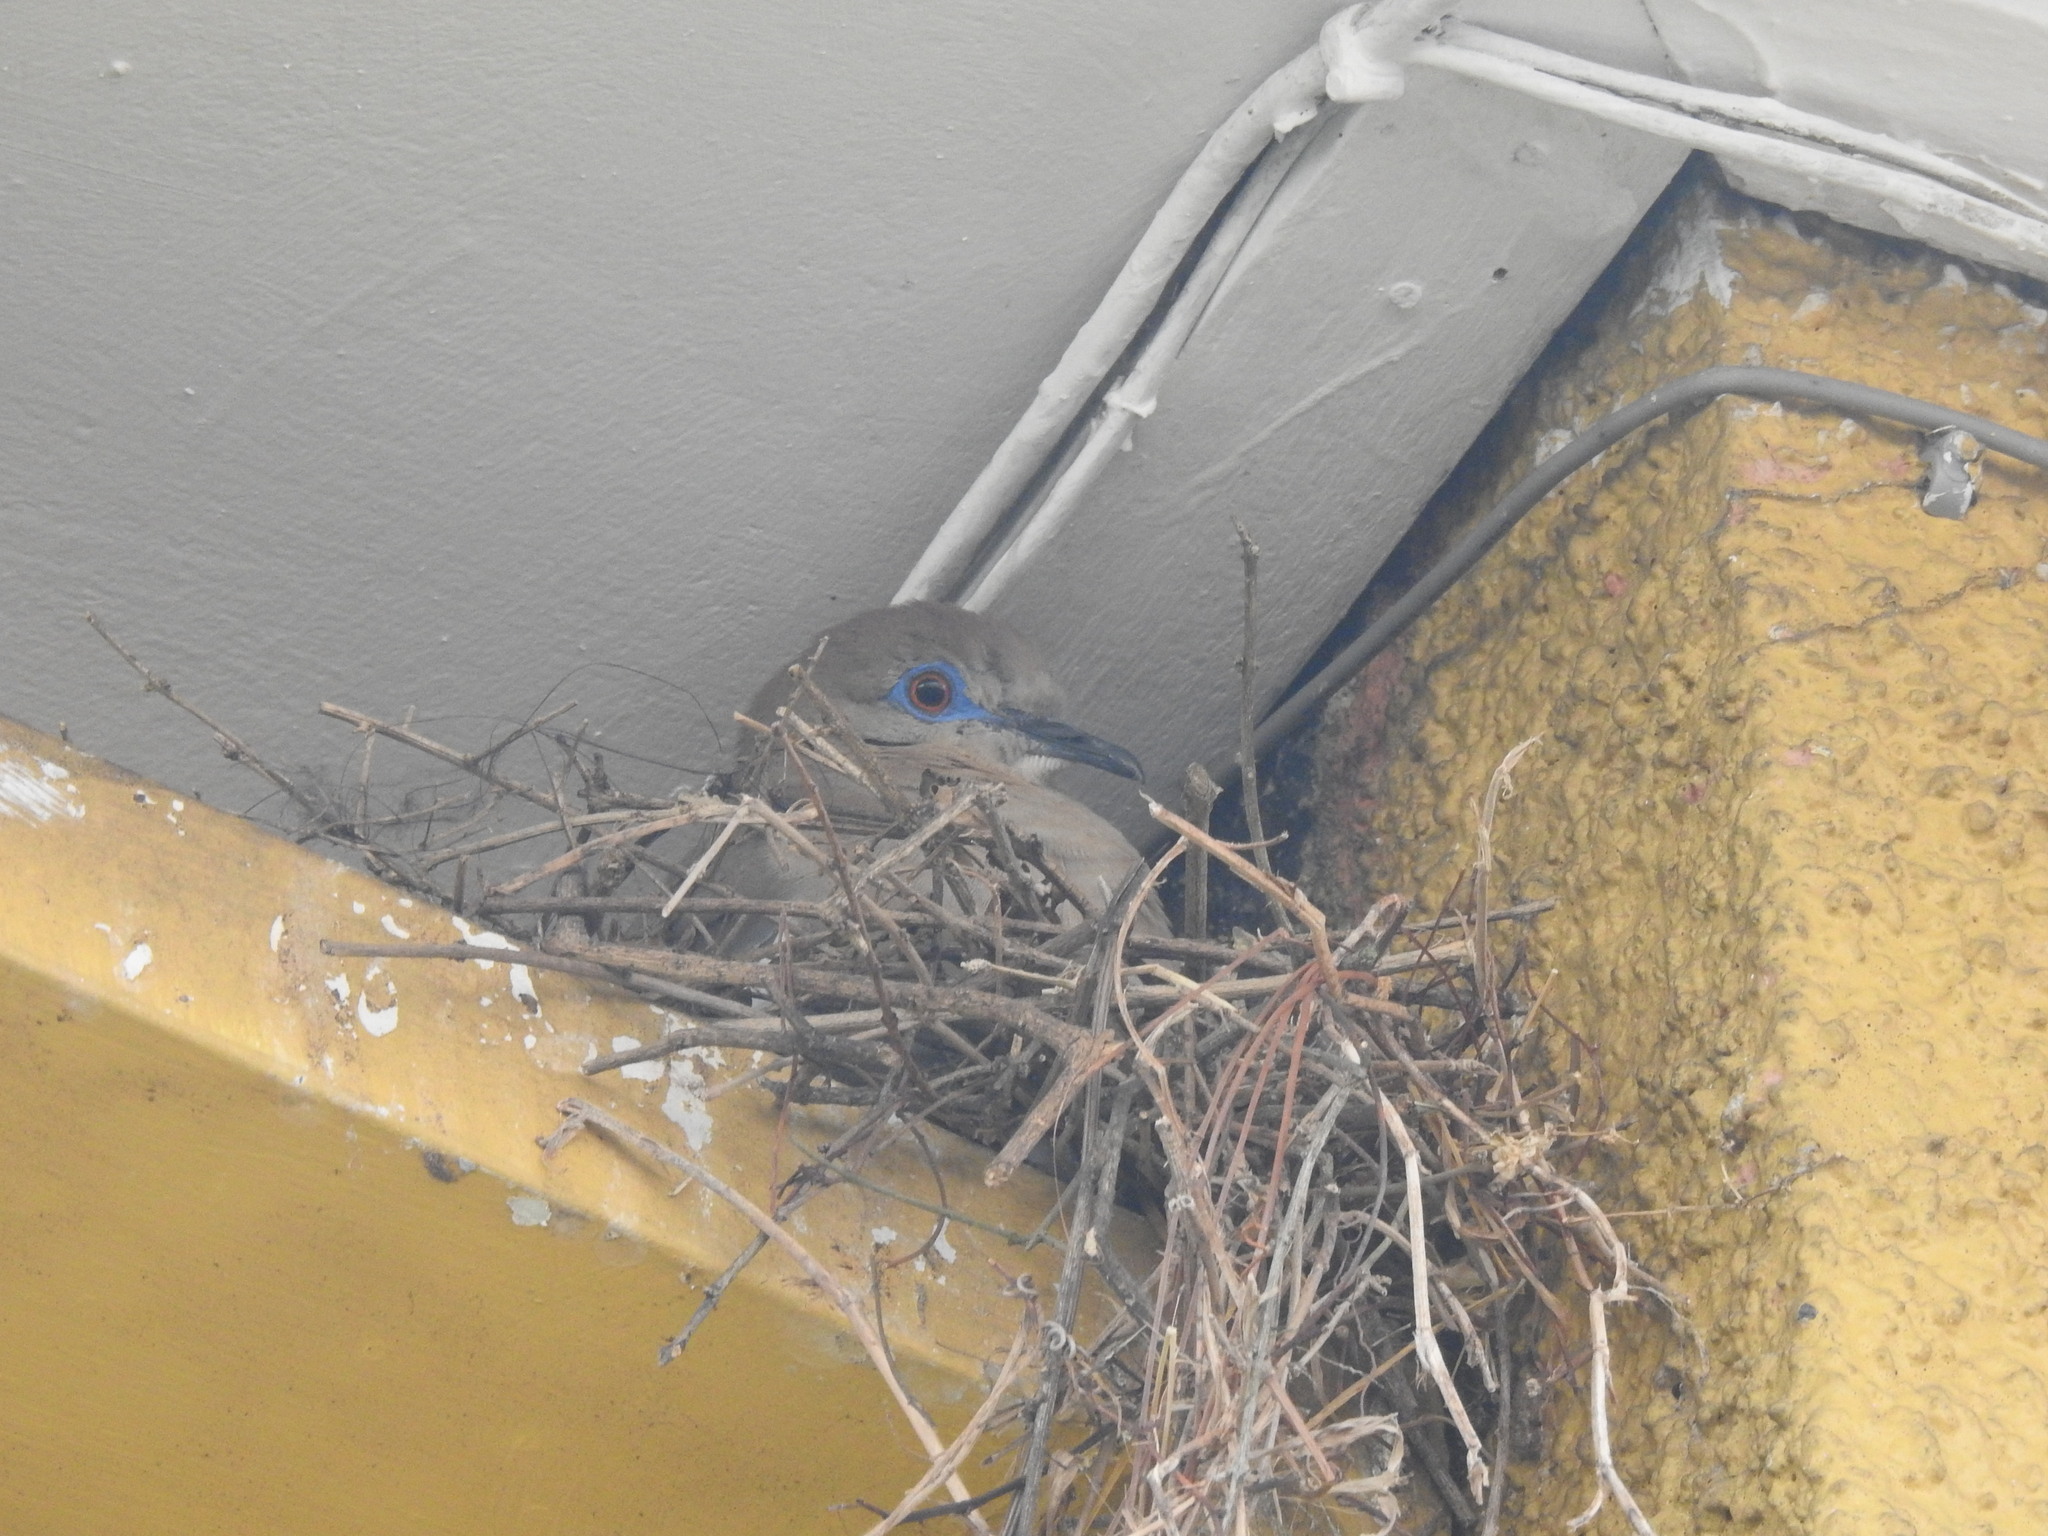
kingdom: Animalia
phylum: Chordata
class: Aves
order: Columbiformes
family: Columbidae
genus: Zenaida
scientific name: Zenaida asiatica
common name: White-winged dove
